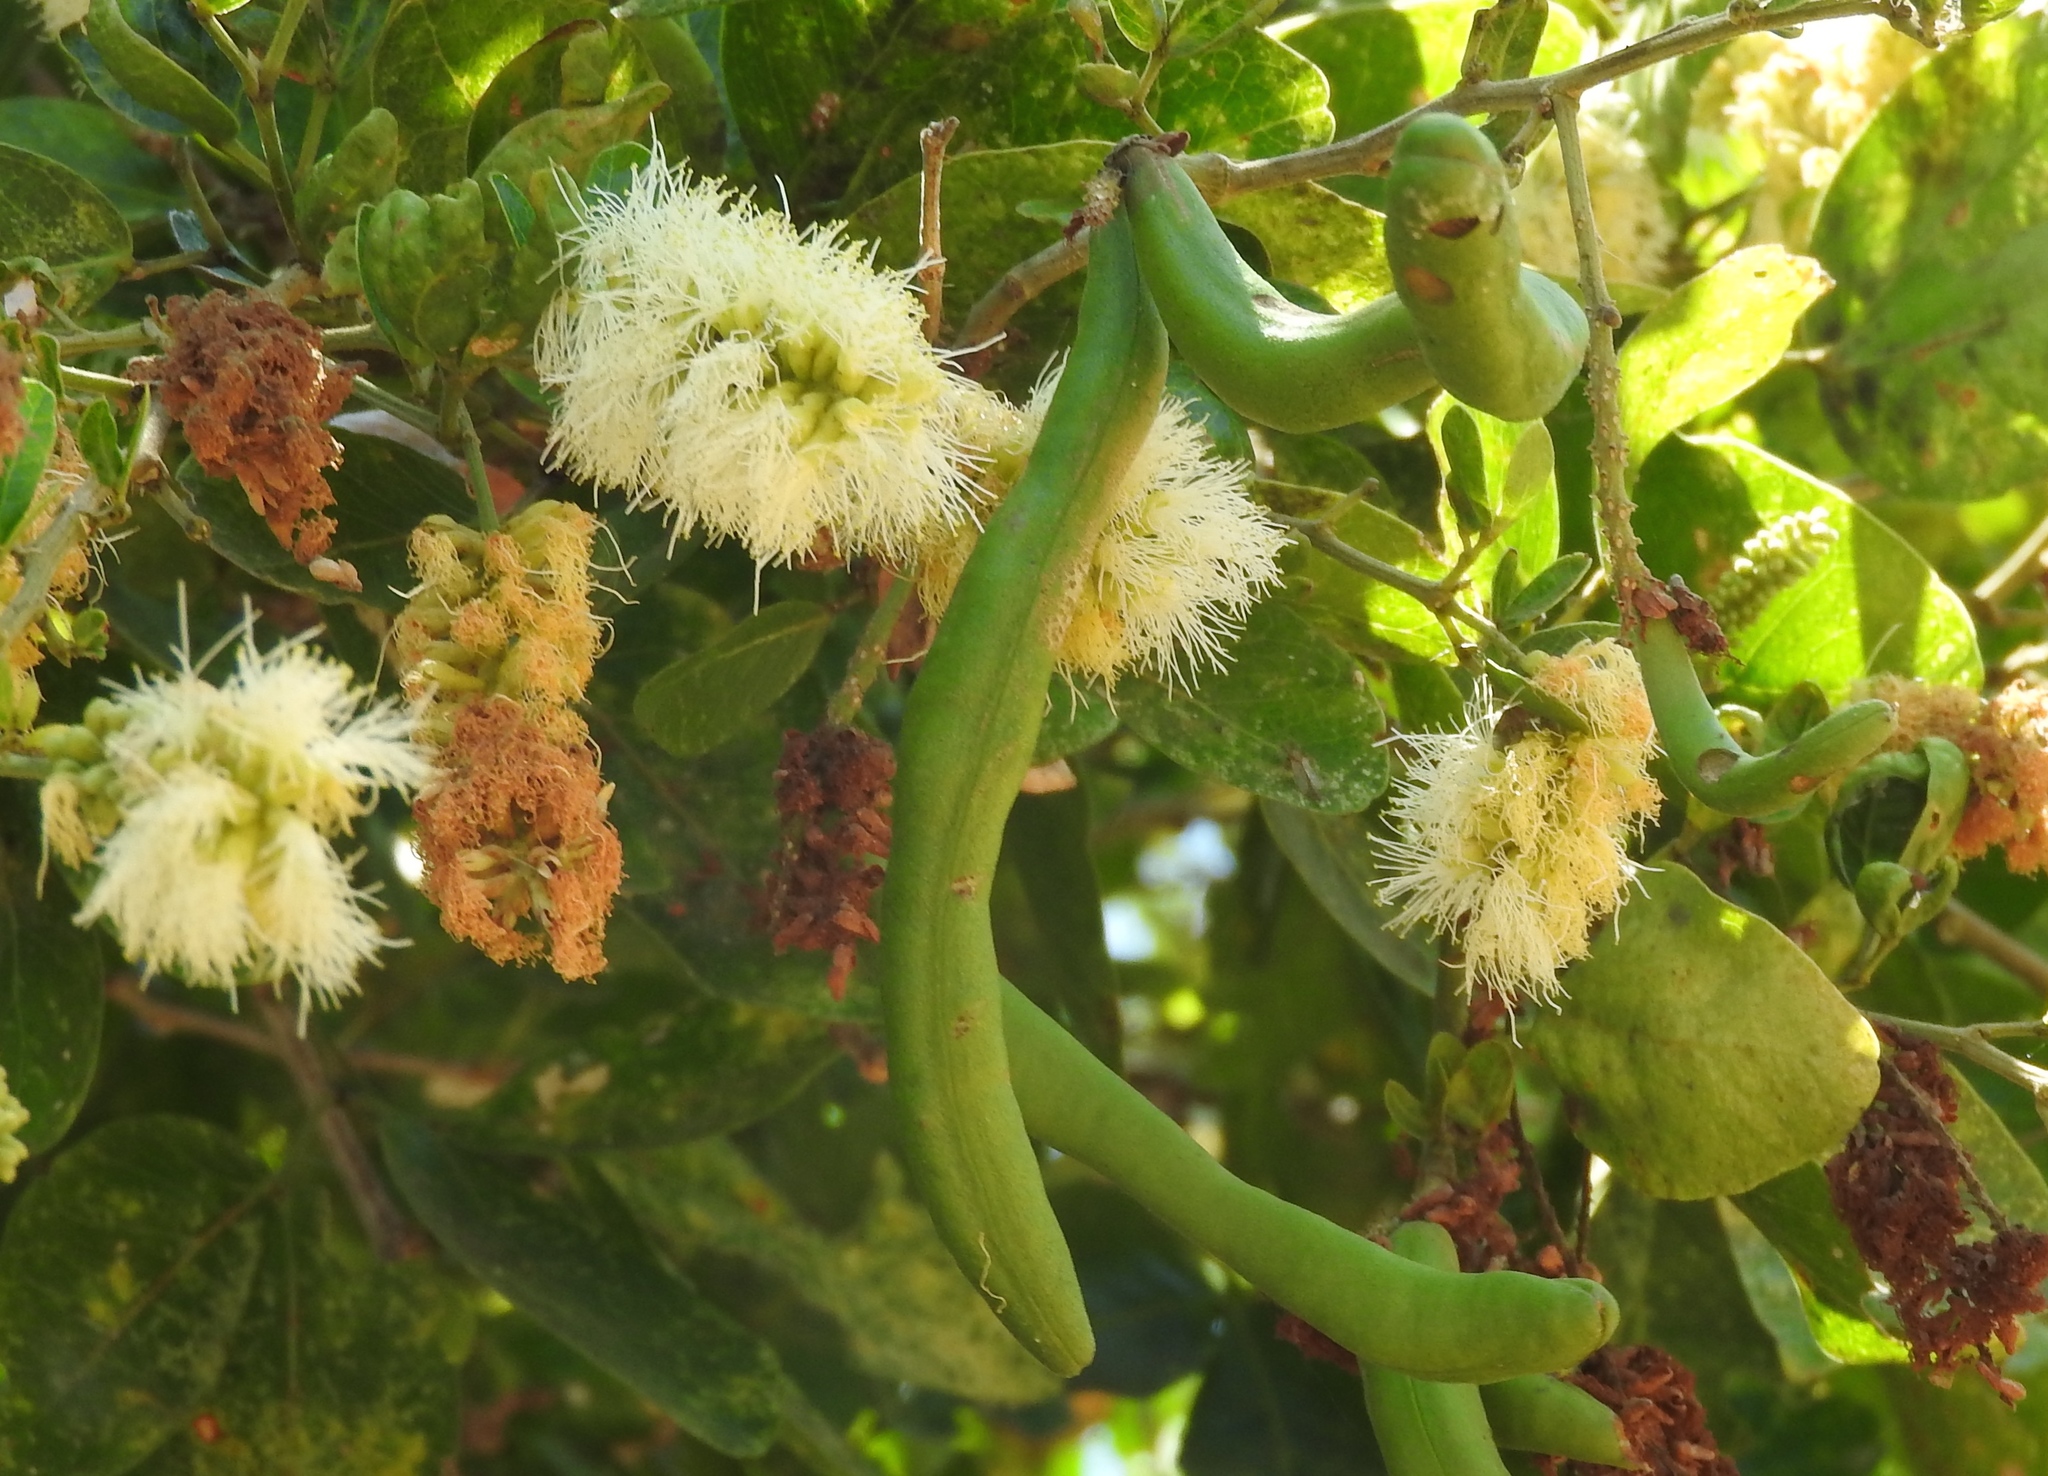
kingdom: Plantae
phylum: Tracheophyta
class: Magnoliopsida
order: Fabales
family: Fabaceae
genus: Pithecellobium
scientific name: Pithecellobium lanceolatum
